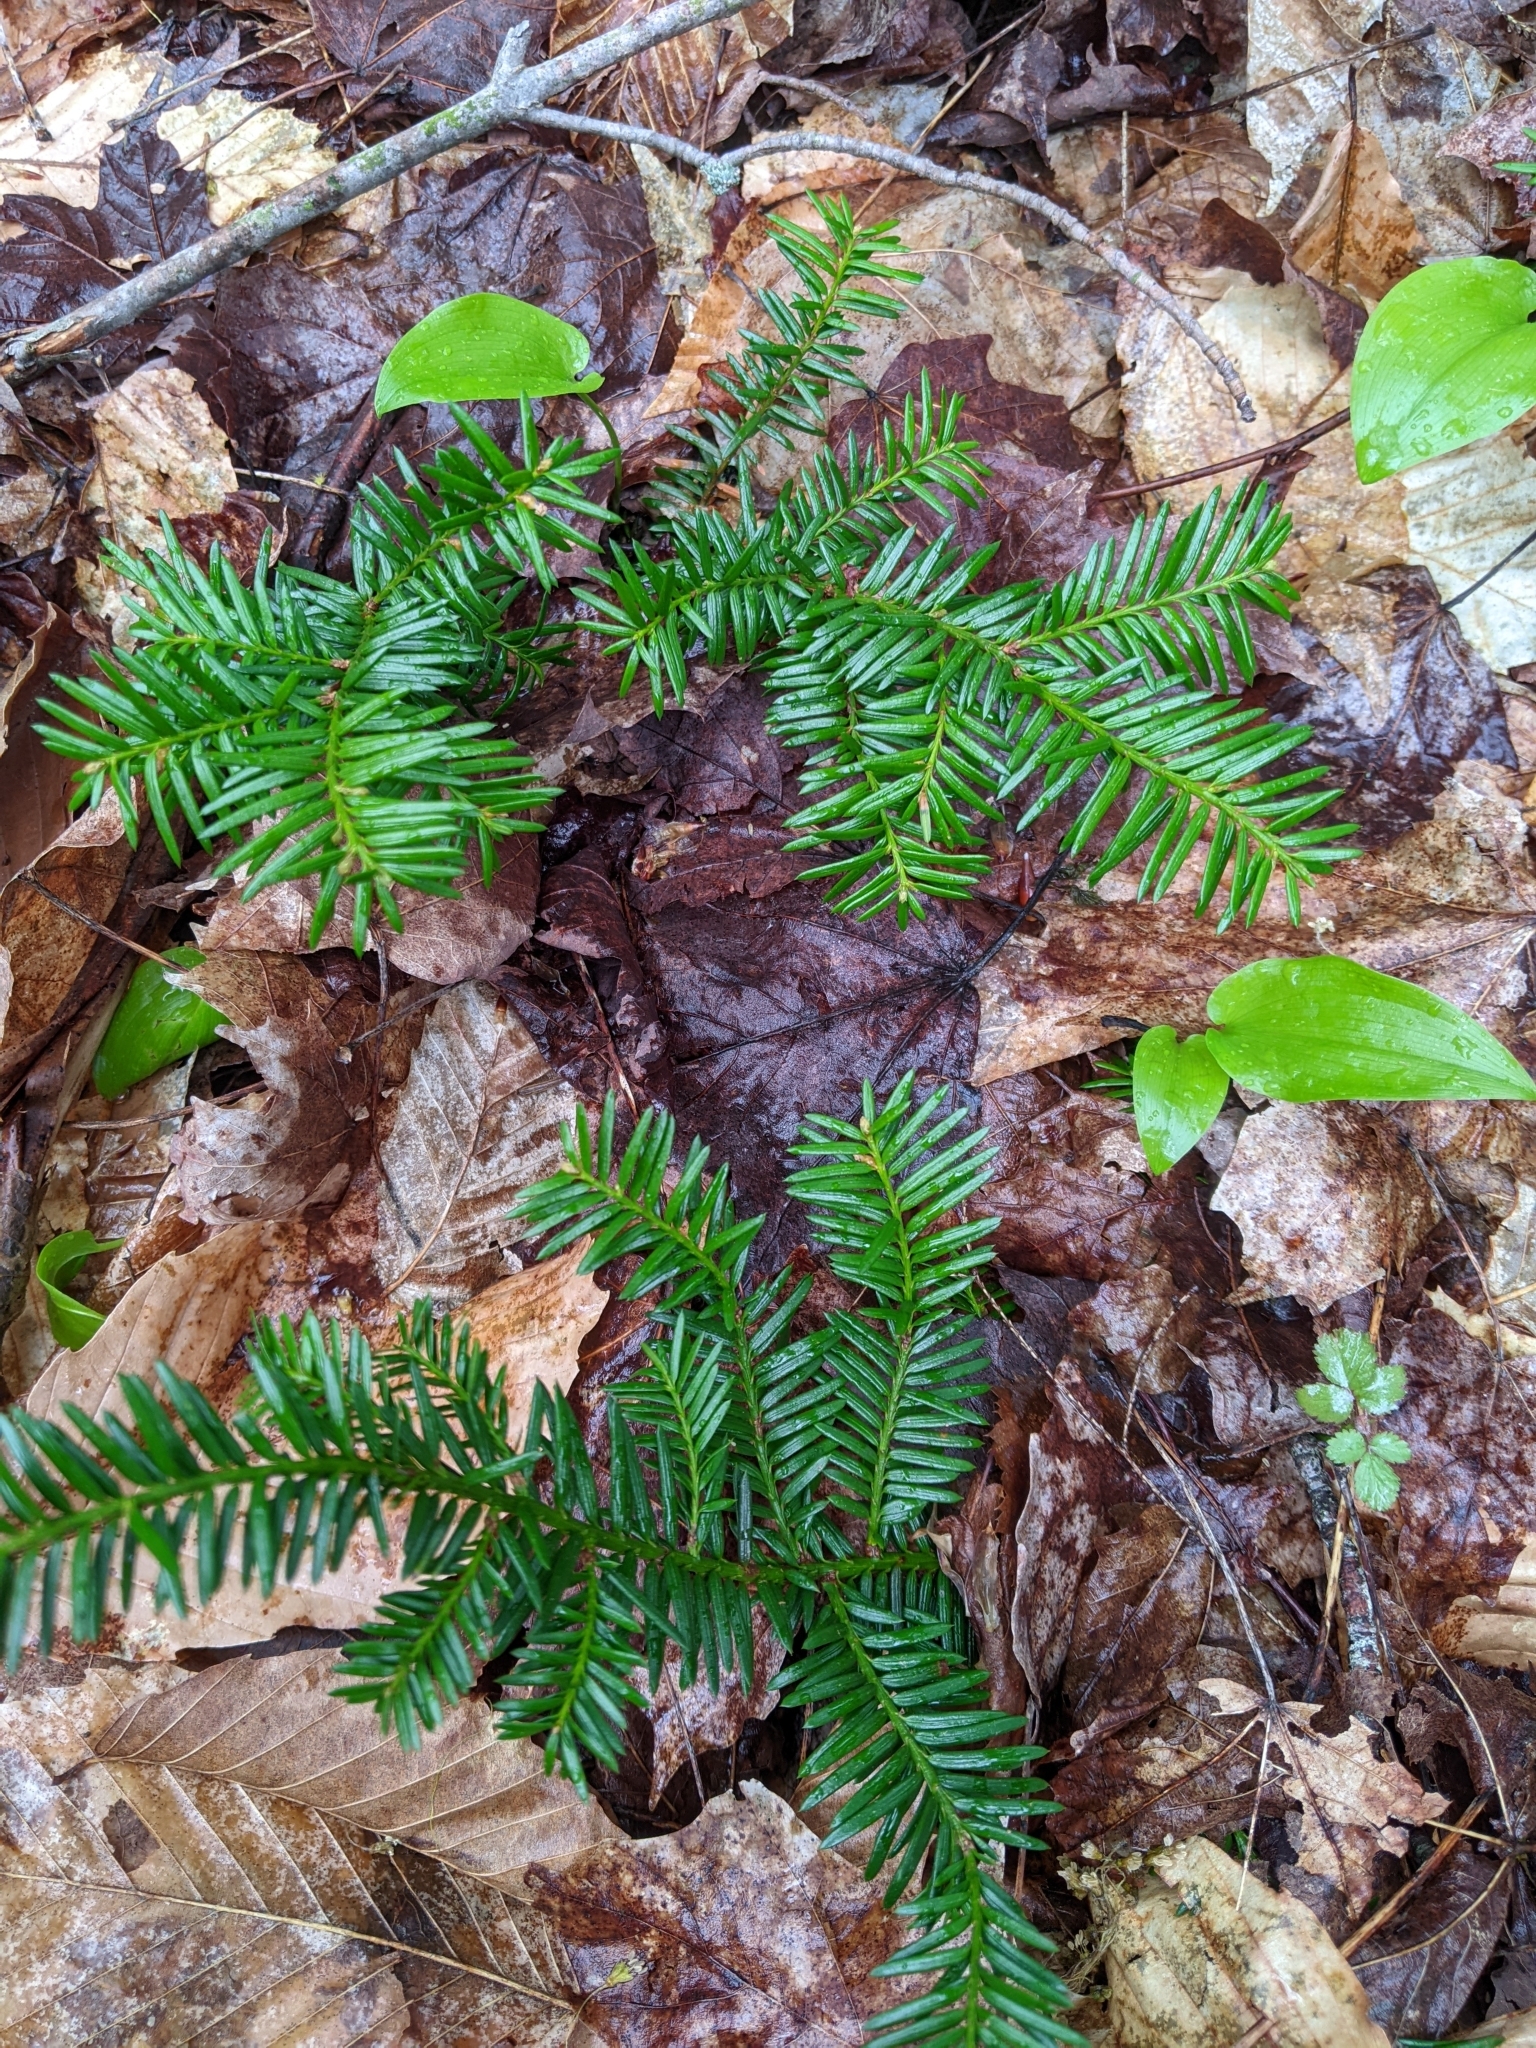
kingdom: Plantae
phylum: Tracheophyta
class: Pinopsida
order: Pinales
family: Taxaceae
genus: Taxus
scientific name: Taxus canadensis
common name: American yew
